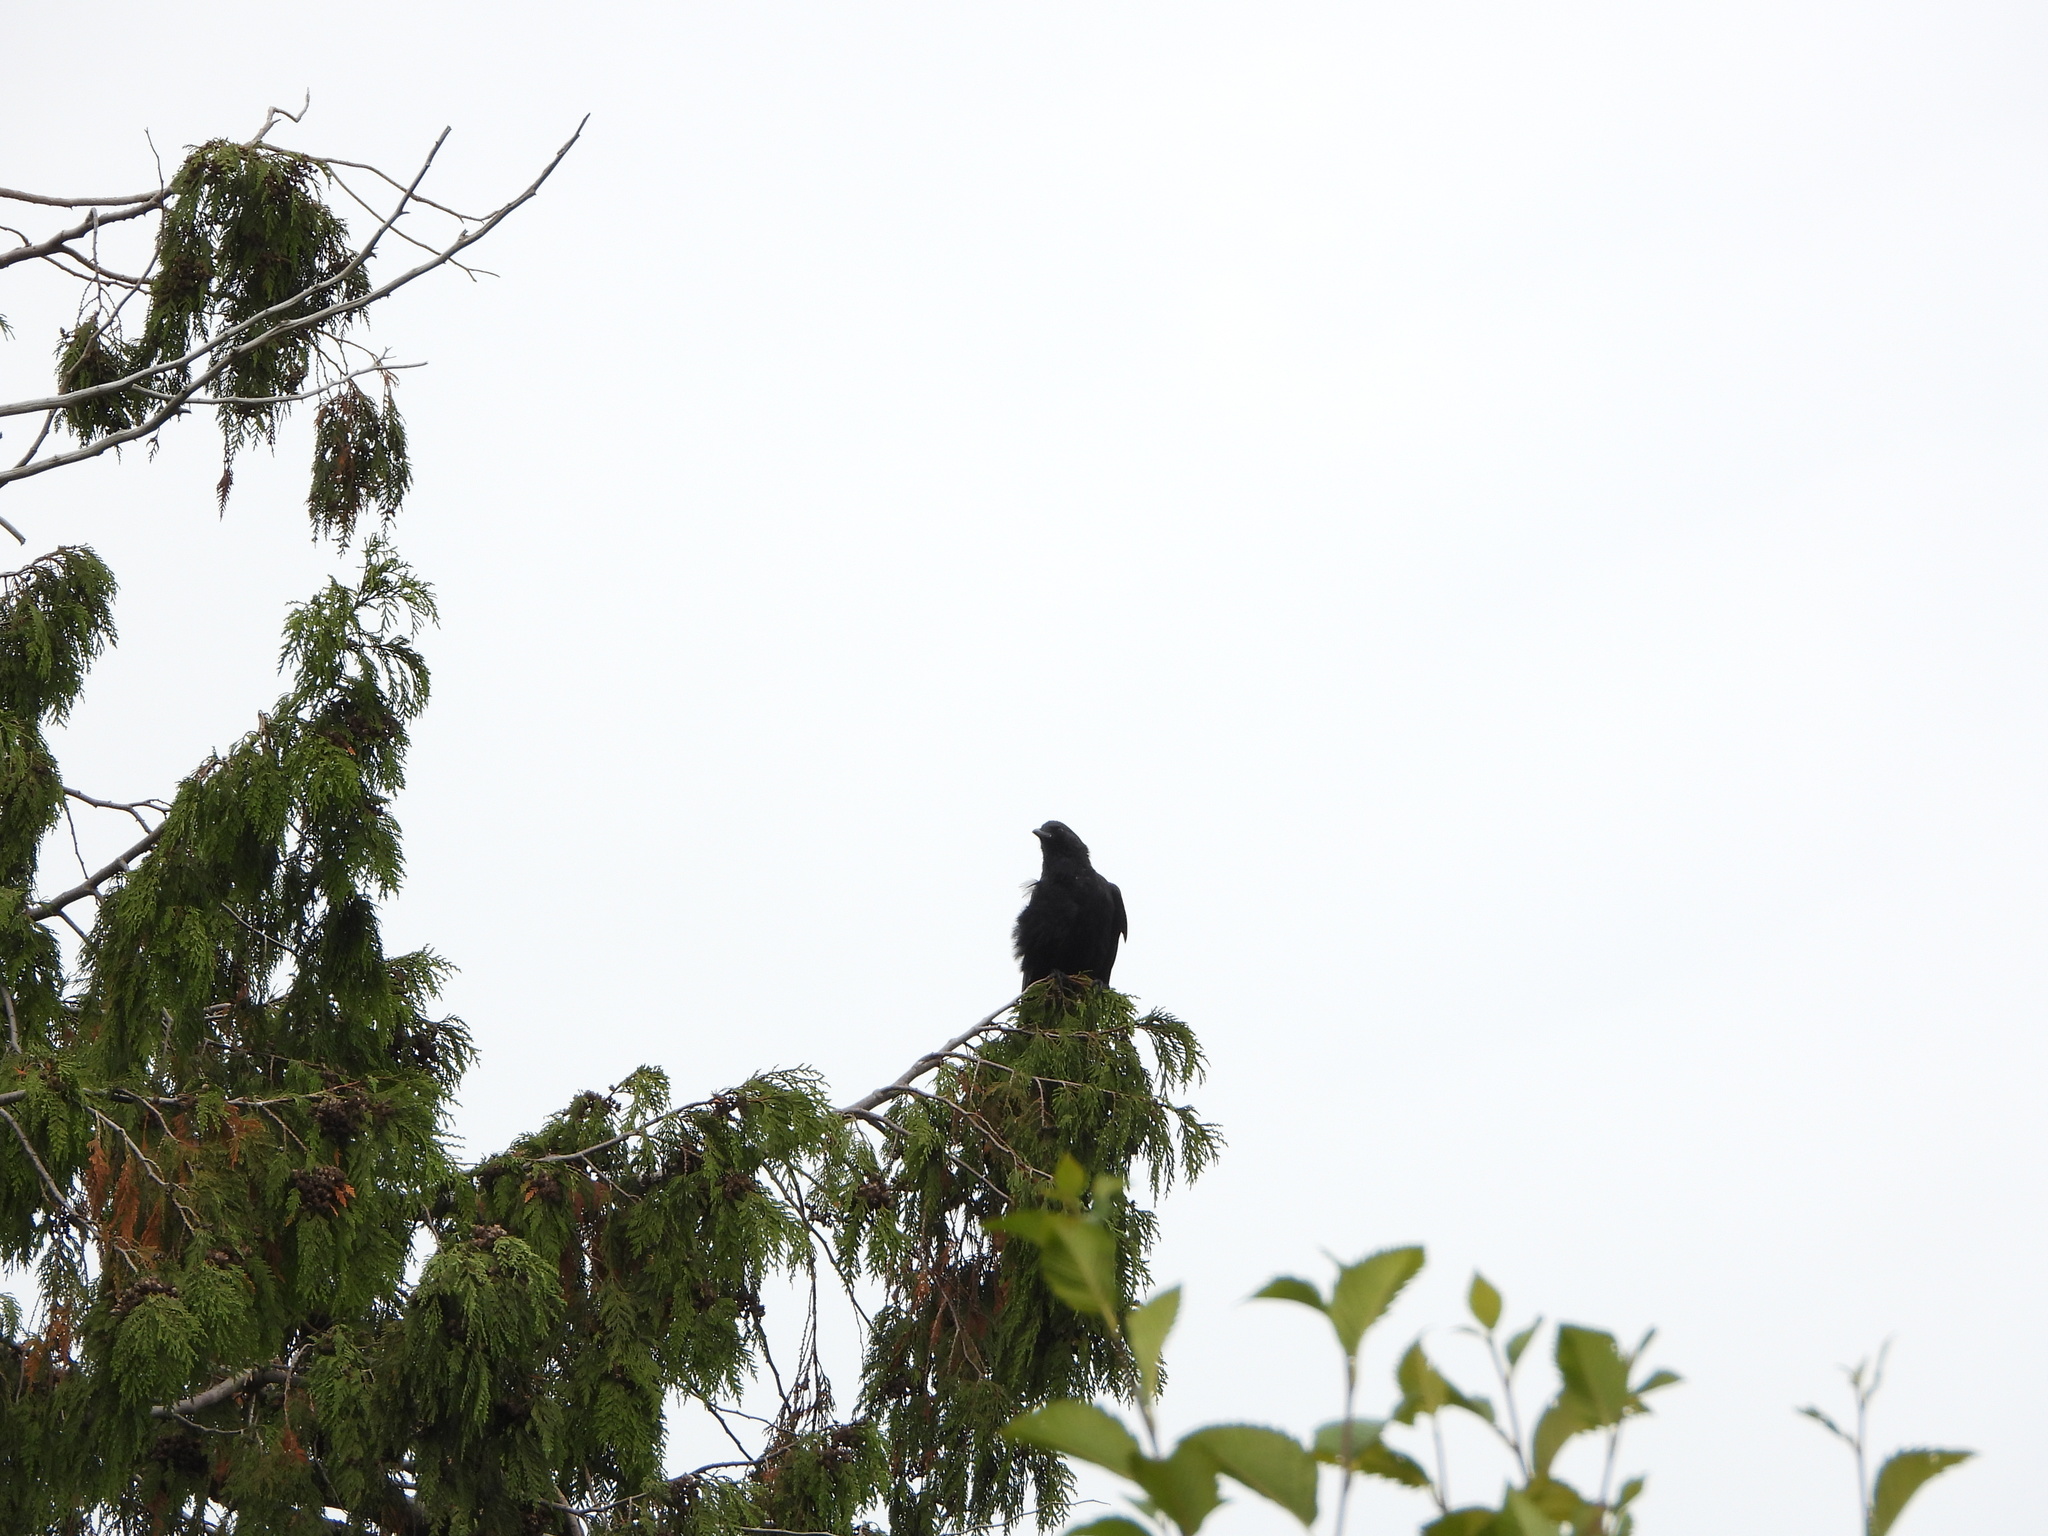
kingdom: Animalia
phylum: Chordata
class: Aves
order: Passeriformes
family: Corvidae
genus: Corvus
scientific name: Corvus brachyrhynchos
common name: American crow
